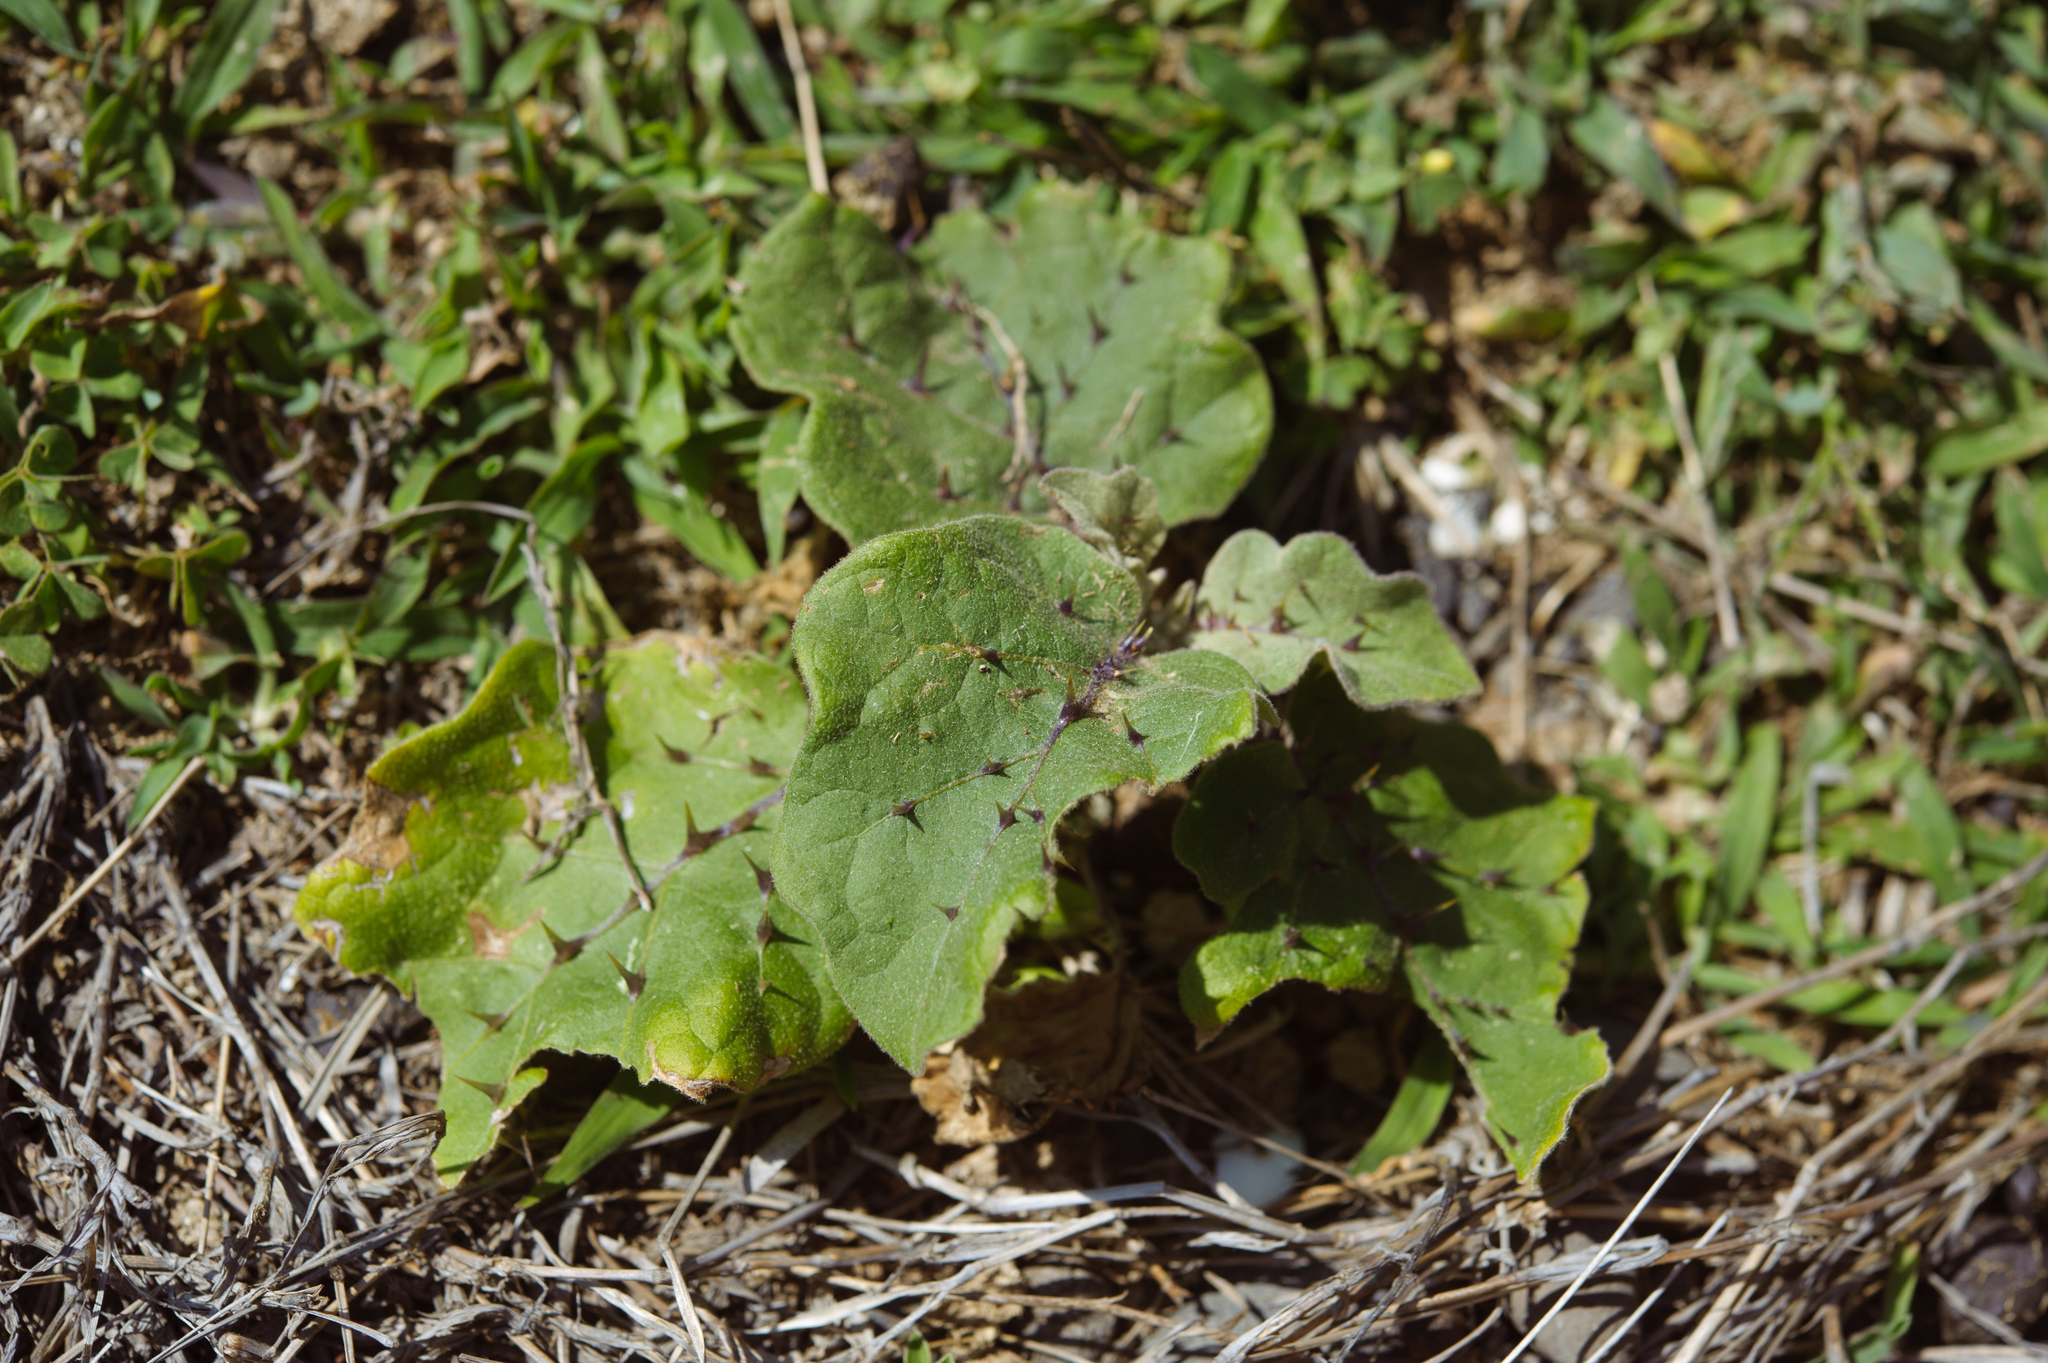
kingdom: Plantae
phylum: Tracheophyta
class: Magnoliopsida
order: Solanales
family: Solanaceae
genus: Solanum
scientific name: Solanum insanum
